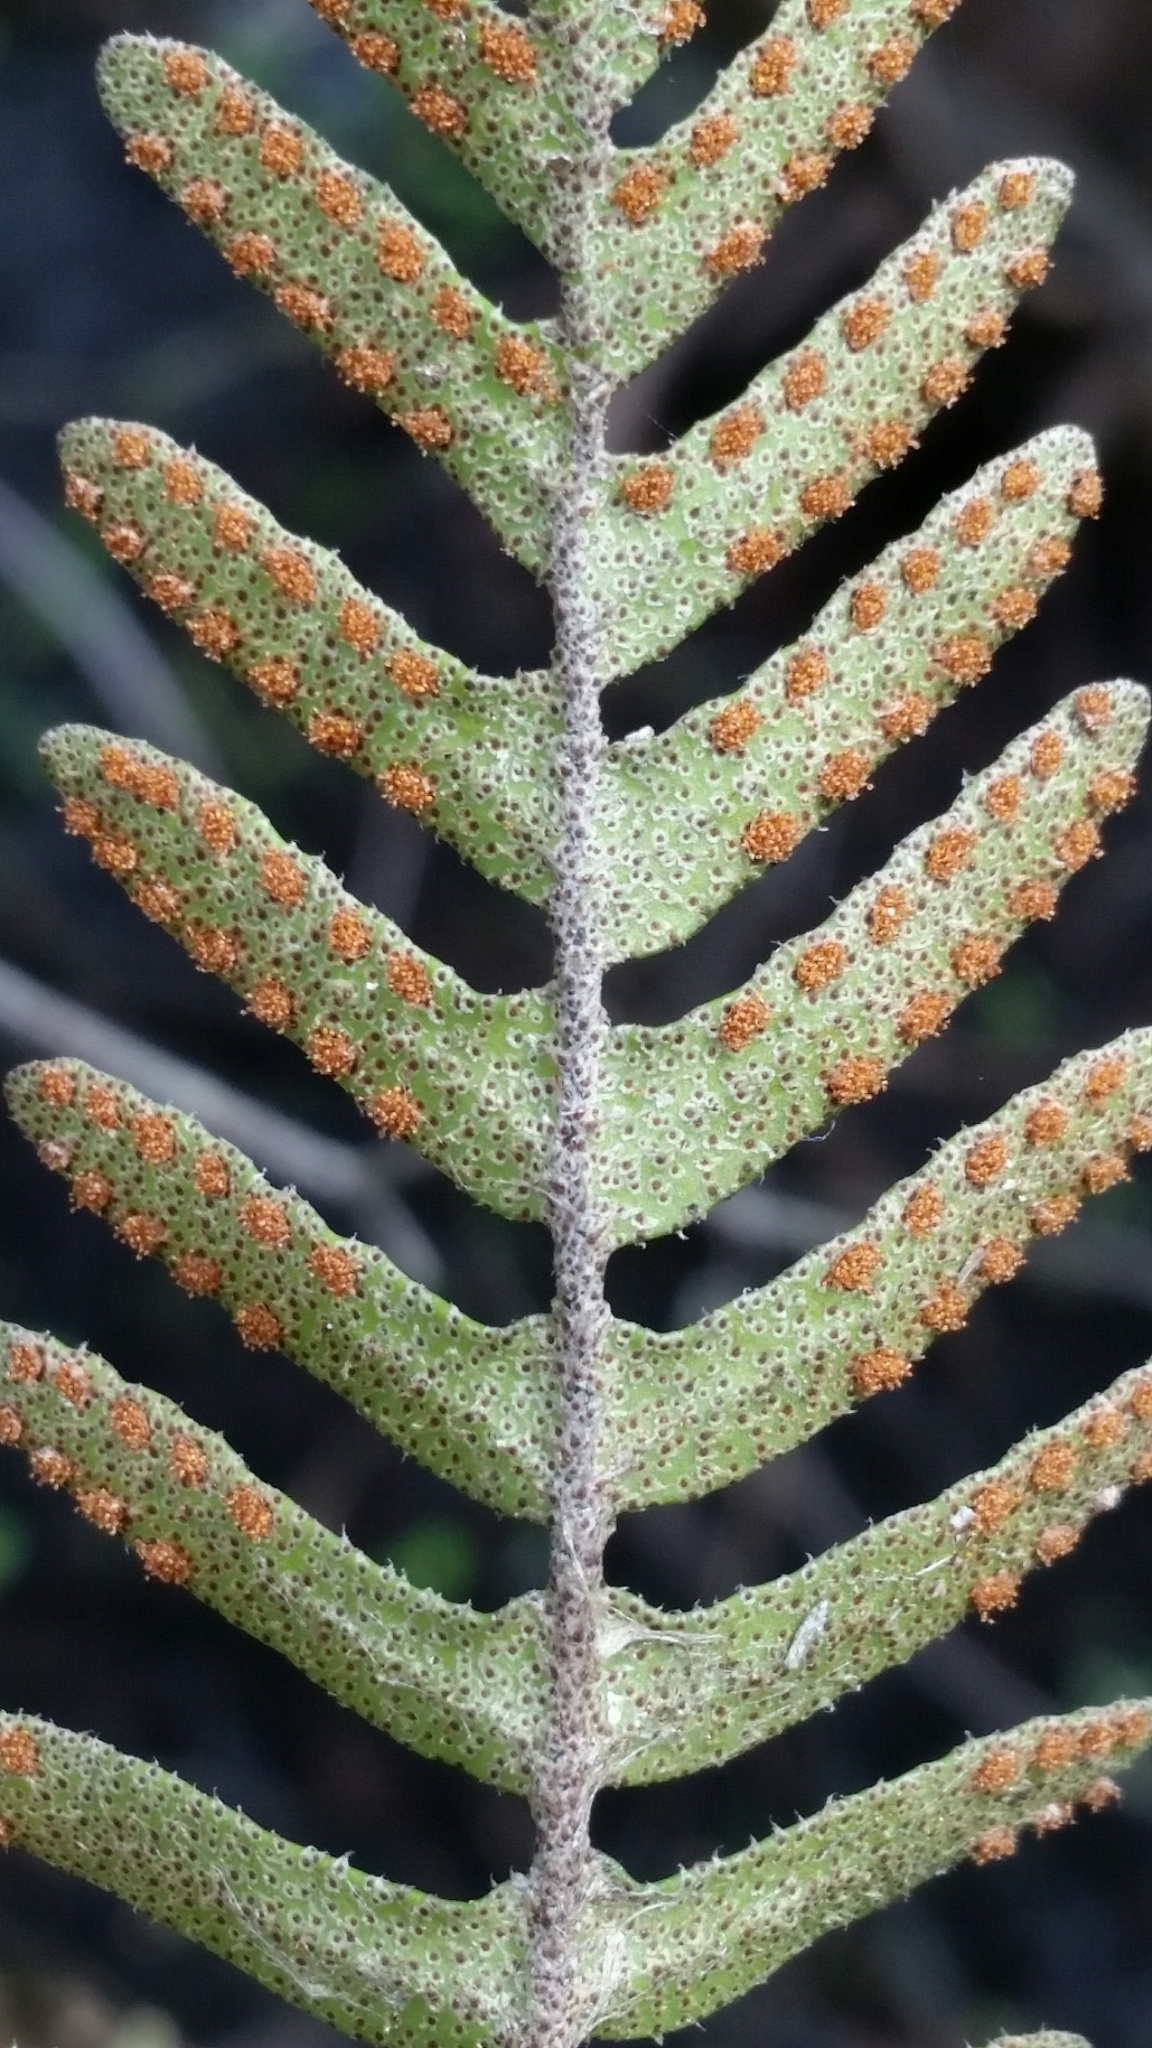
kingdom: Plantae
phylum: Tracheophyta
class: Polypodiopsida
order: Polypodiales
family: Polypodiaceae
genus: Pleopeltis
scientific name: Pleopeltis michauxiana
